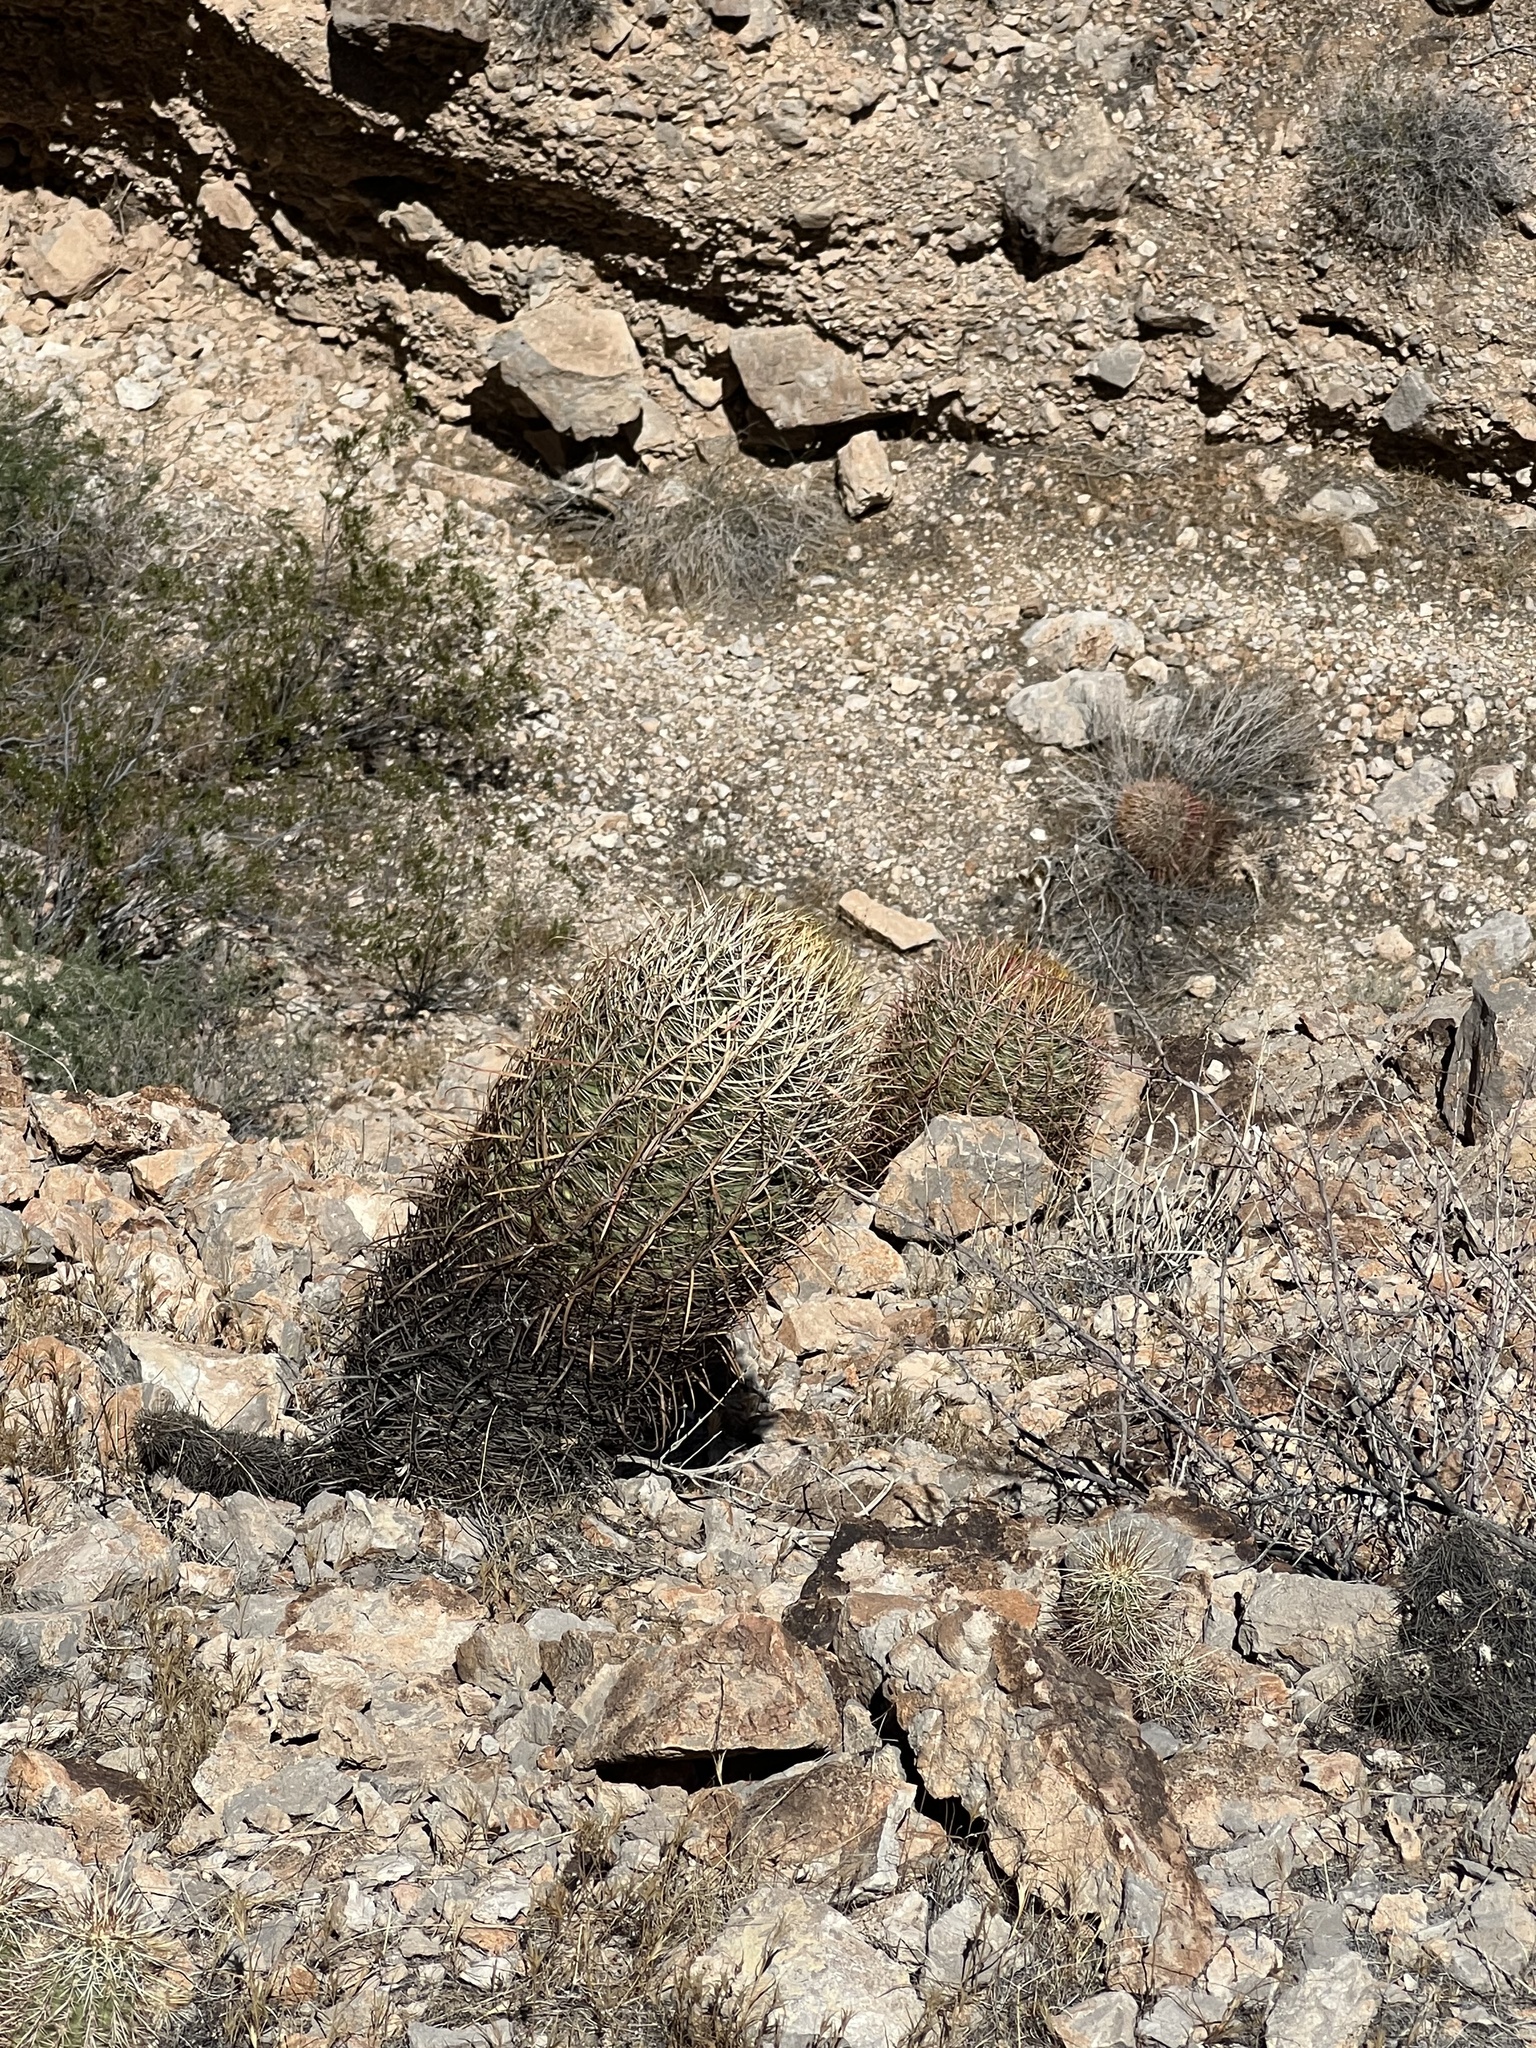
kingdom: Plantae
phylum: Tracheophyta
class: Magnoliopsida
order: Caryophyllales
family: Cactaceae
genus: Ferocactus
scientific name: Ferocactus cylindraceus
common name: California barrel cactus
